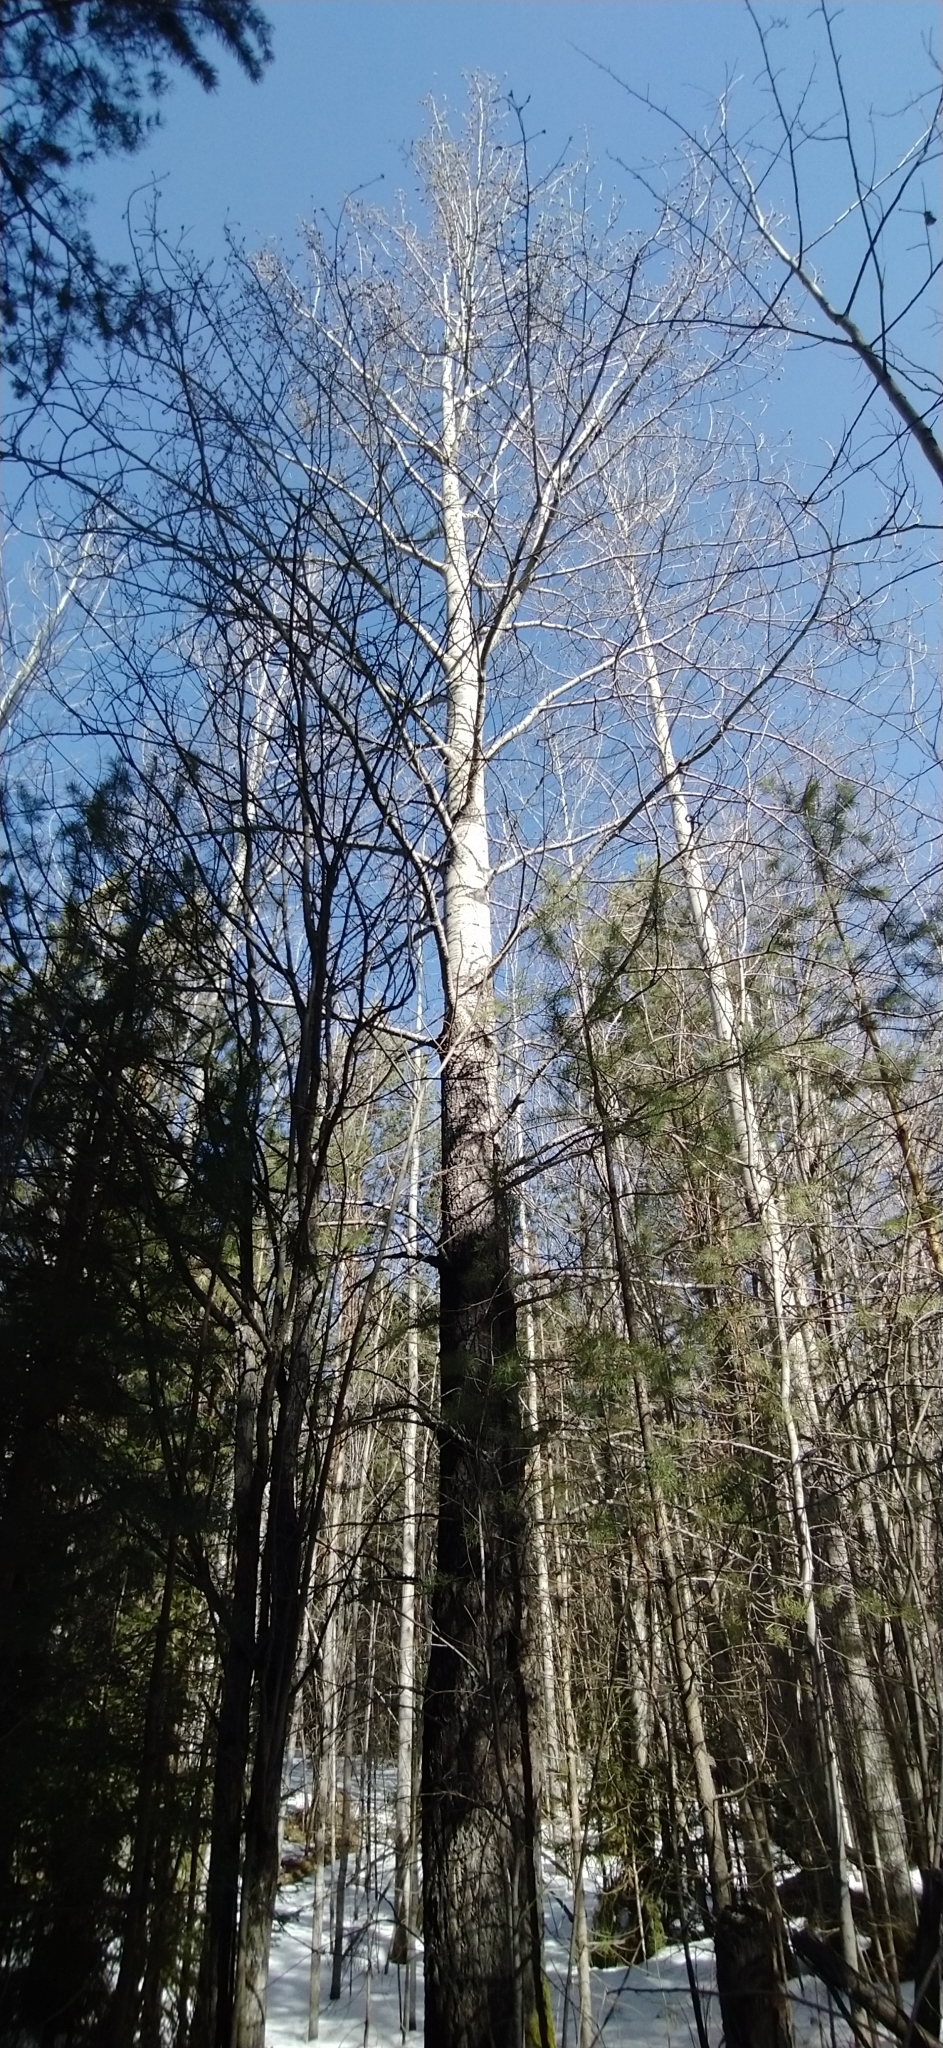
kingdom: Plantae
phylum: Tracheophyta
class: Magnoliopsida
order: Malpighiales
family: Salicaceae
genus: Populus
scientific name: Populus tremula
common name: European aspen
